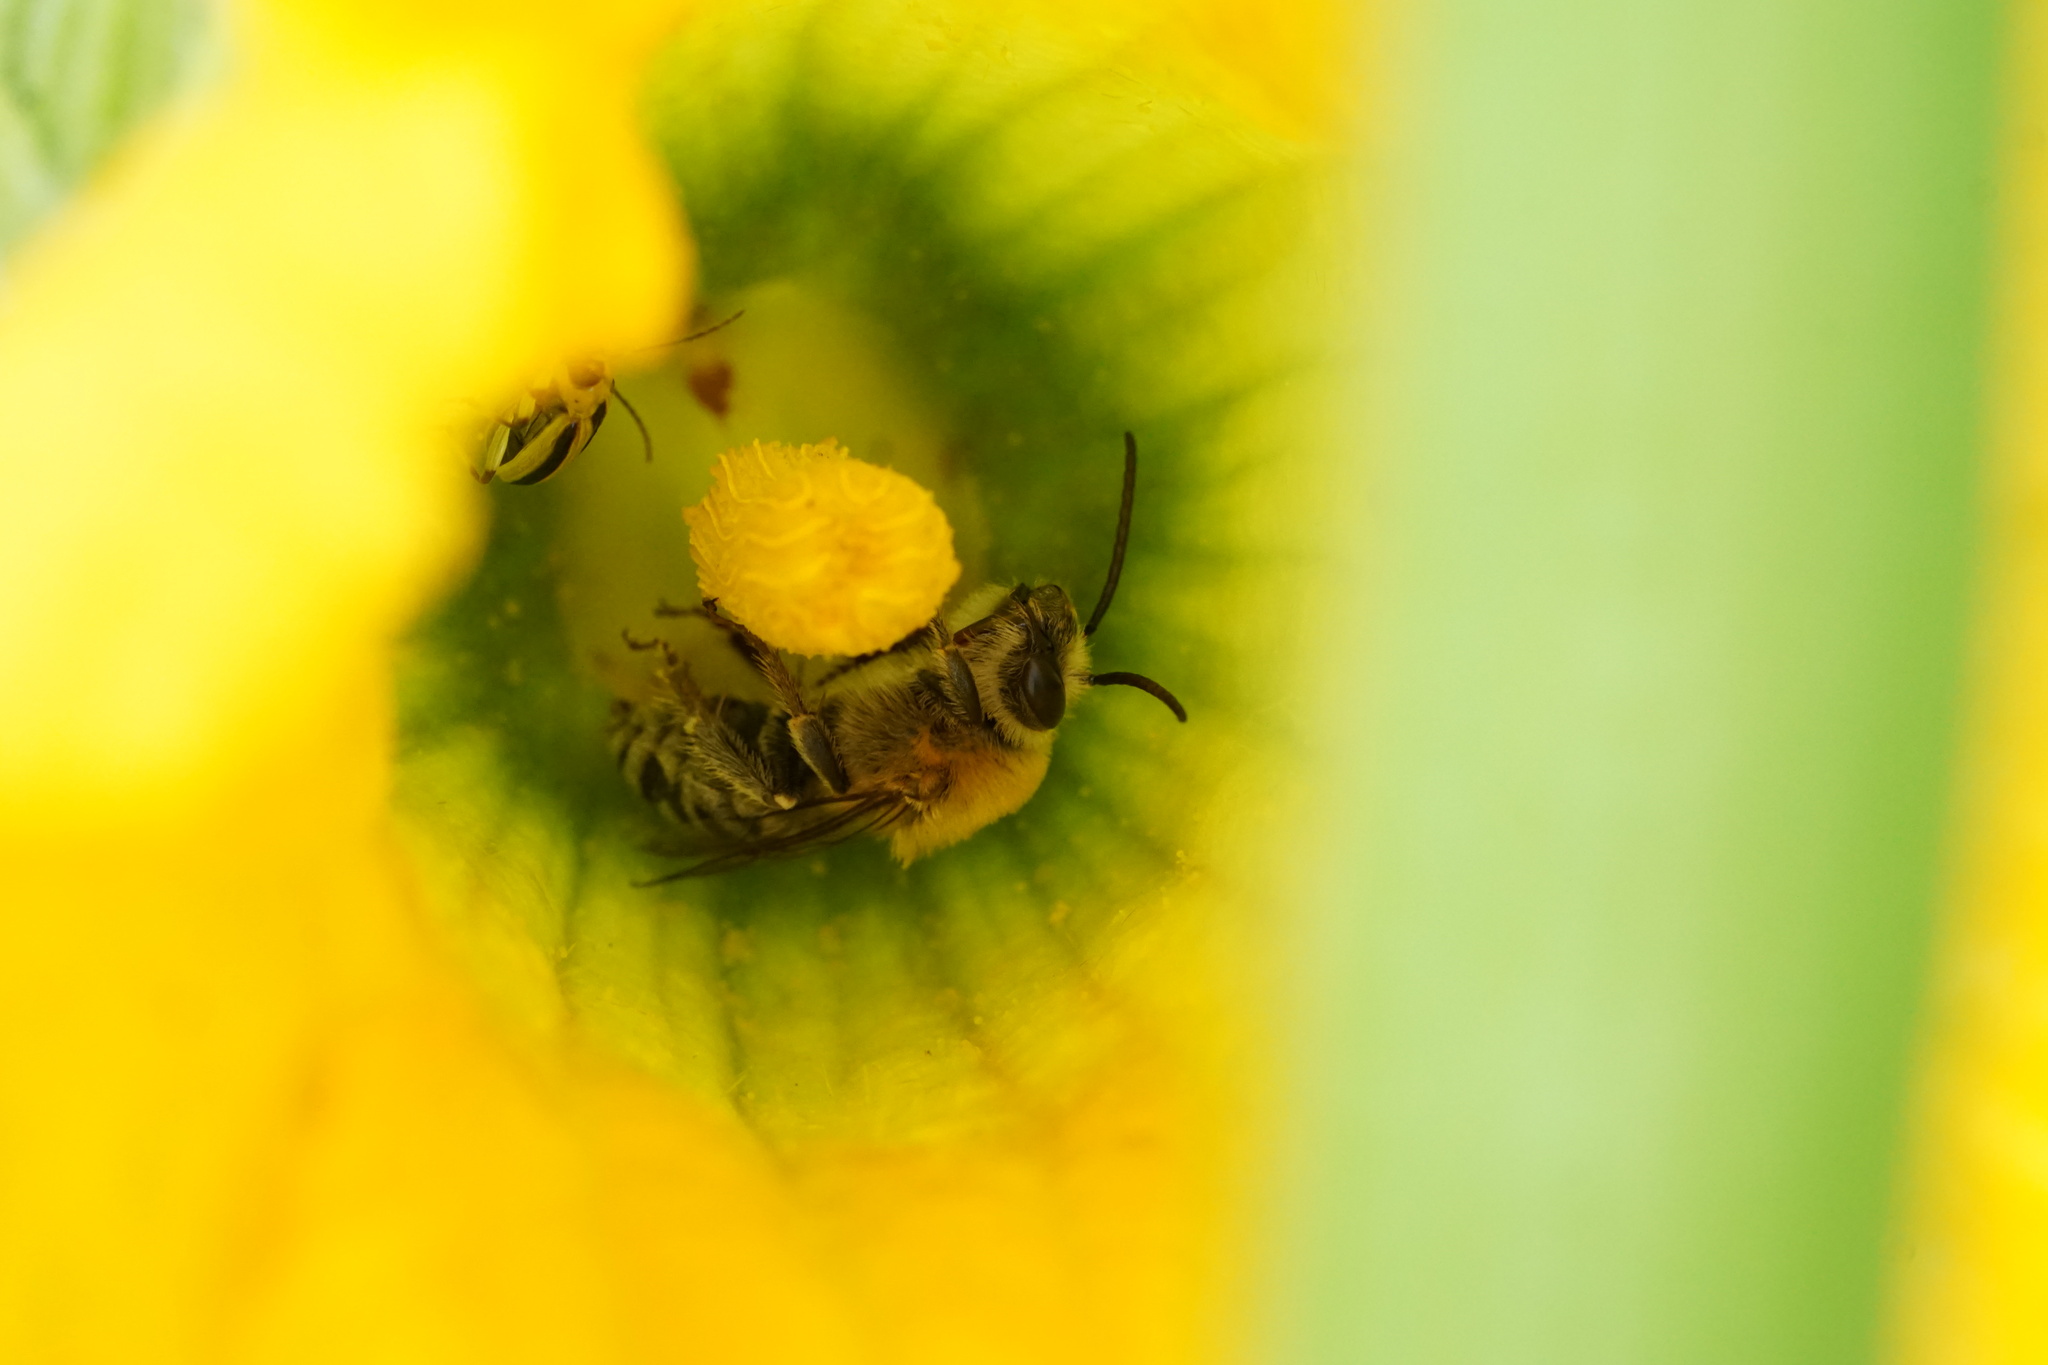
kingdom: Animalia
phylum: Arthropoda
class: Insecta
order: Hymenoptera
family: Apidae
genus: Peponapis
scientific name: Peponapis pruinosa
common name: Pruinose squash bee
